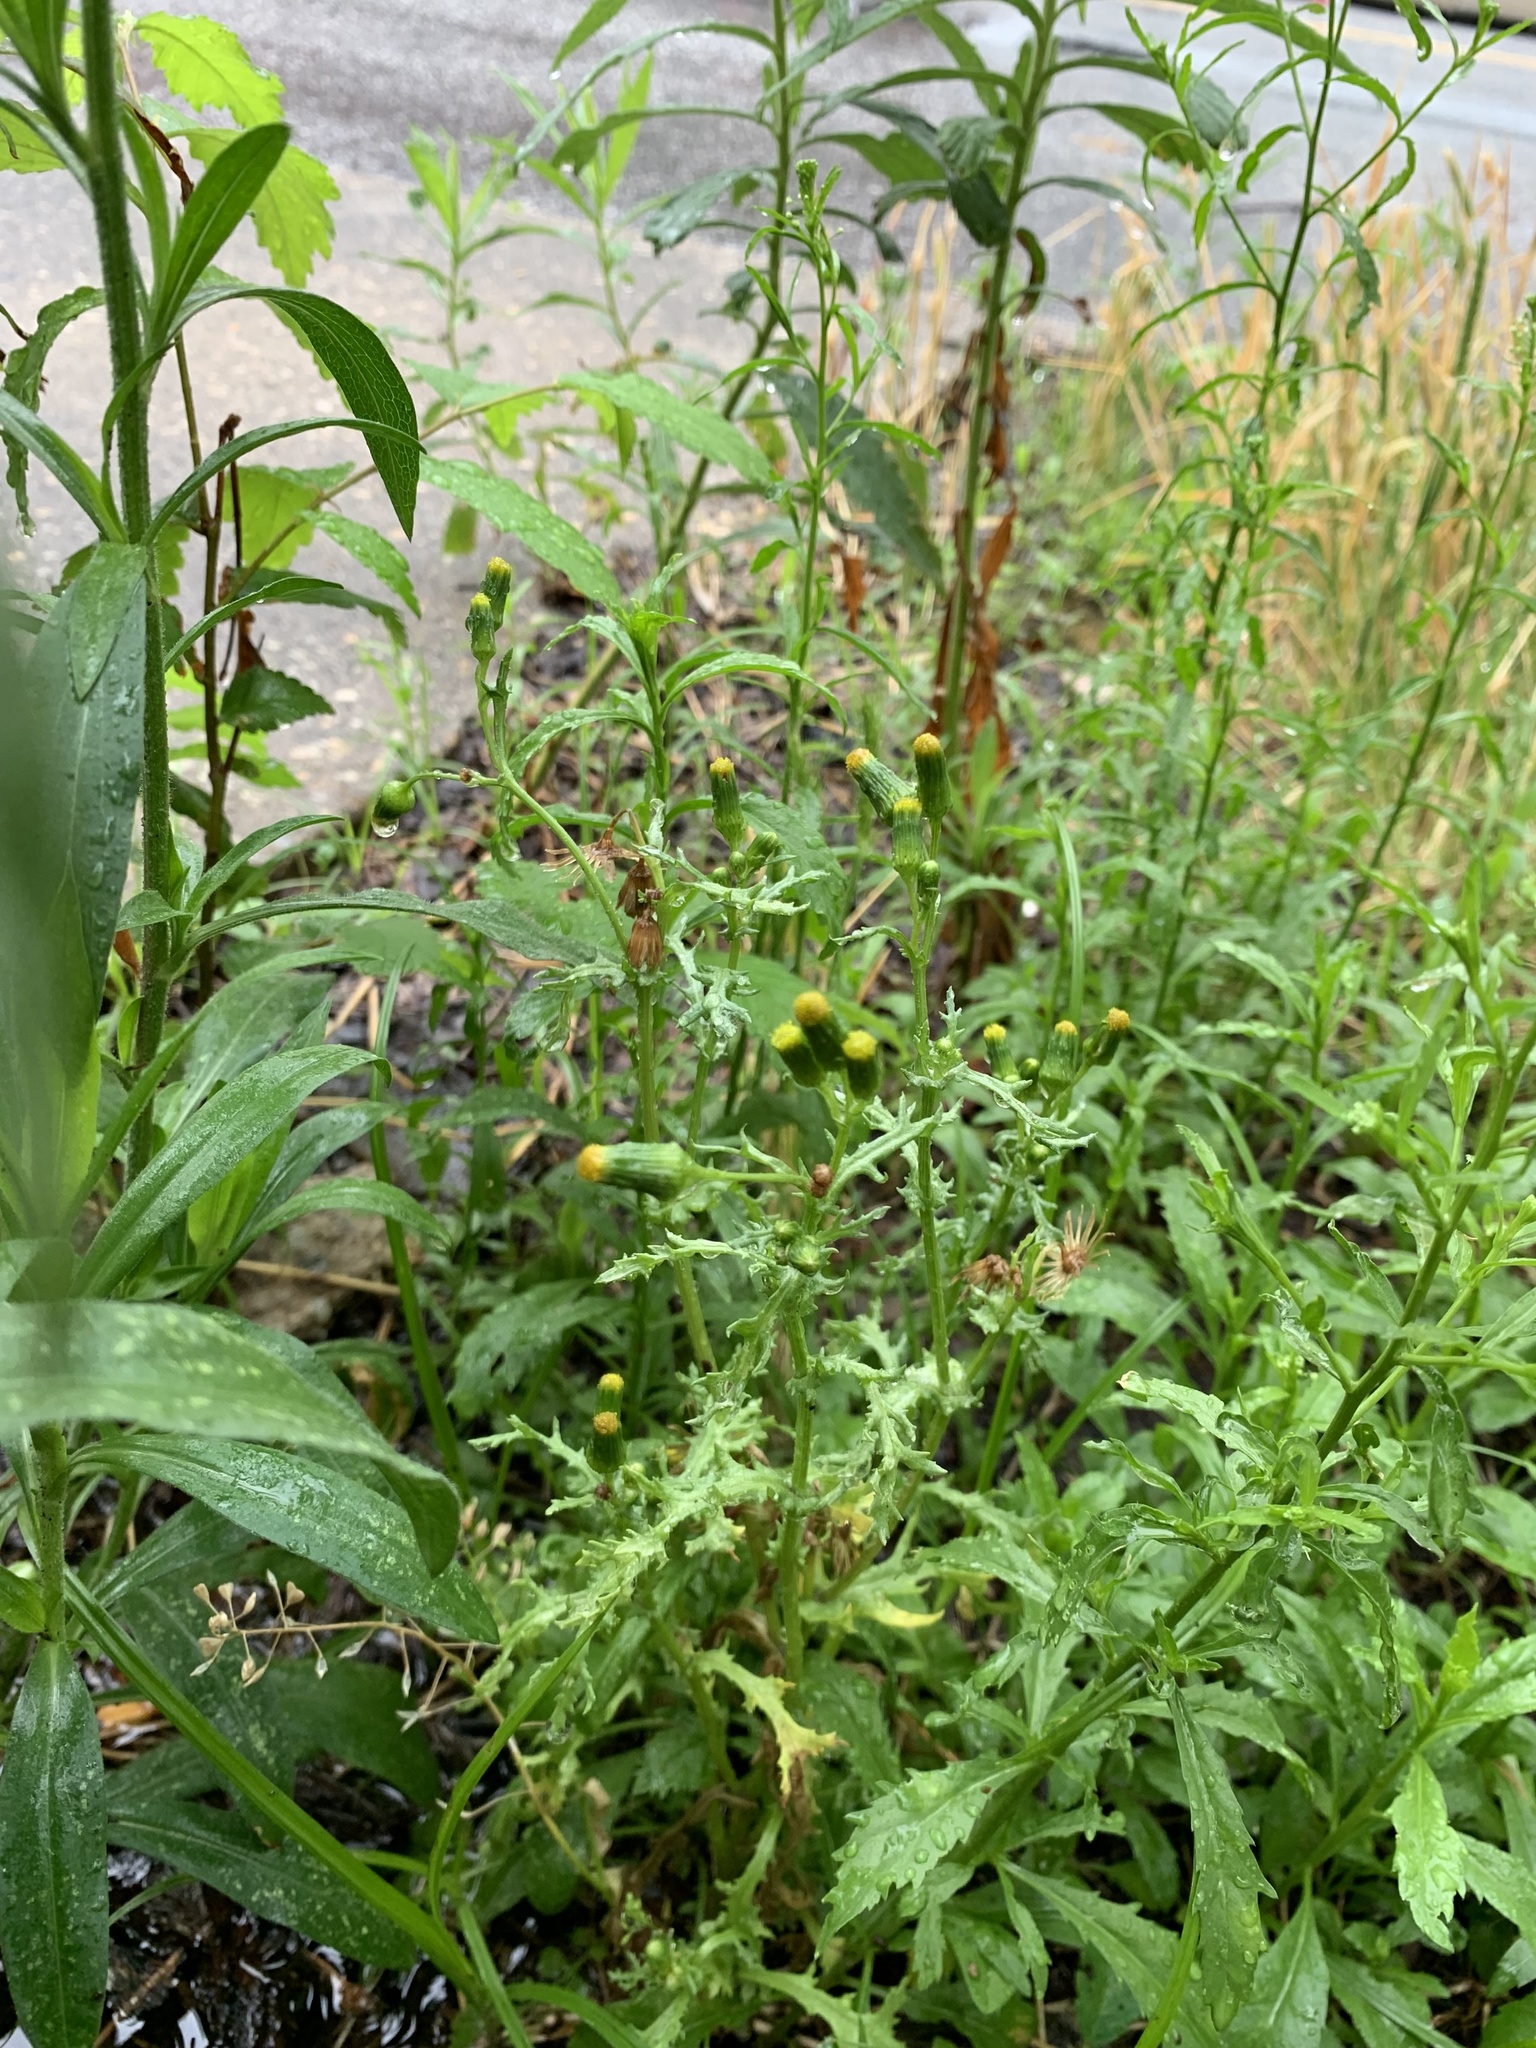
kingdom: Plantae
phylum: Tracheophyta
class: Magnoliopsida
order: Asterales
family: Asteraceae
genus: Senecio
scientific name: Senecio vulgaris
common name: Old-man-in-the-spring
